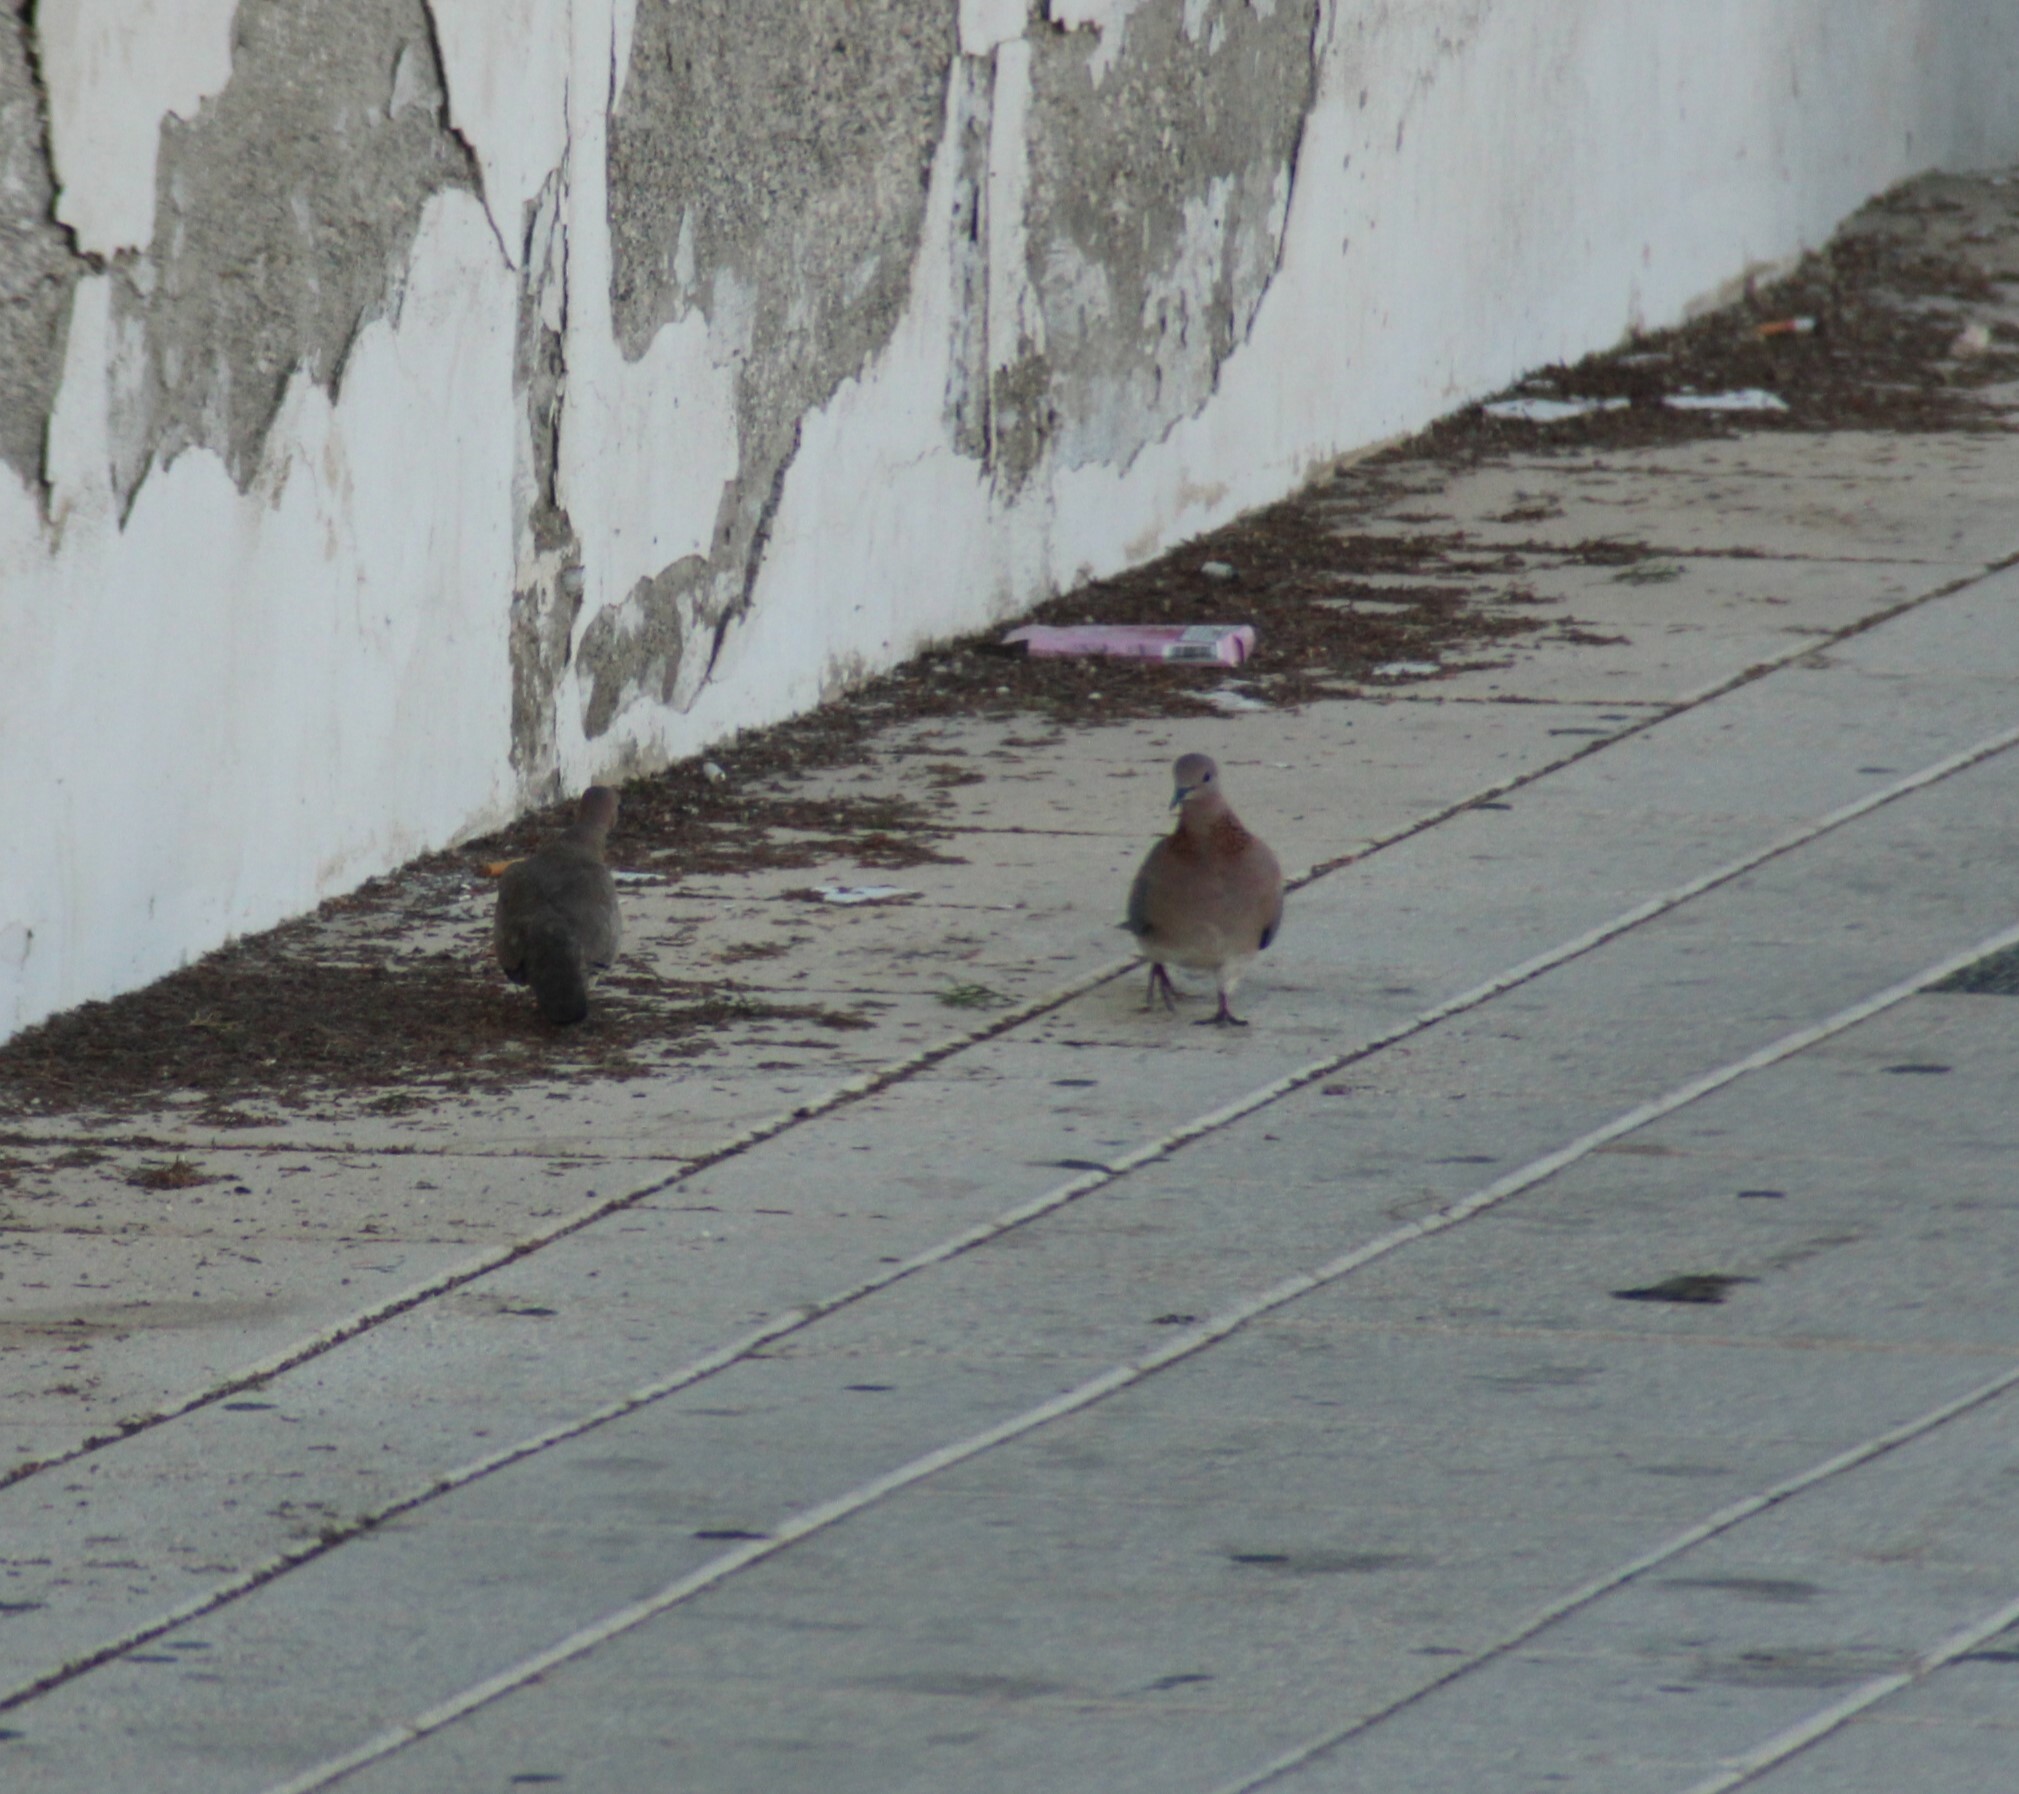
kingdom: Animalia
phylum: Chordata
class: Aves
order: Columbiformes
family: Columbidae
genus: Spilopelia
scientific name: Spilopelia senegalensis
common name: Laughing dove
